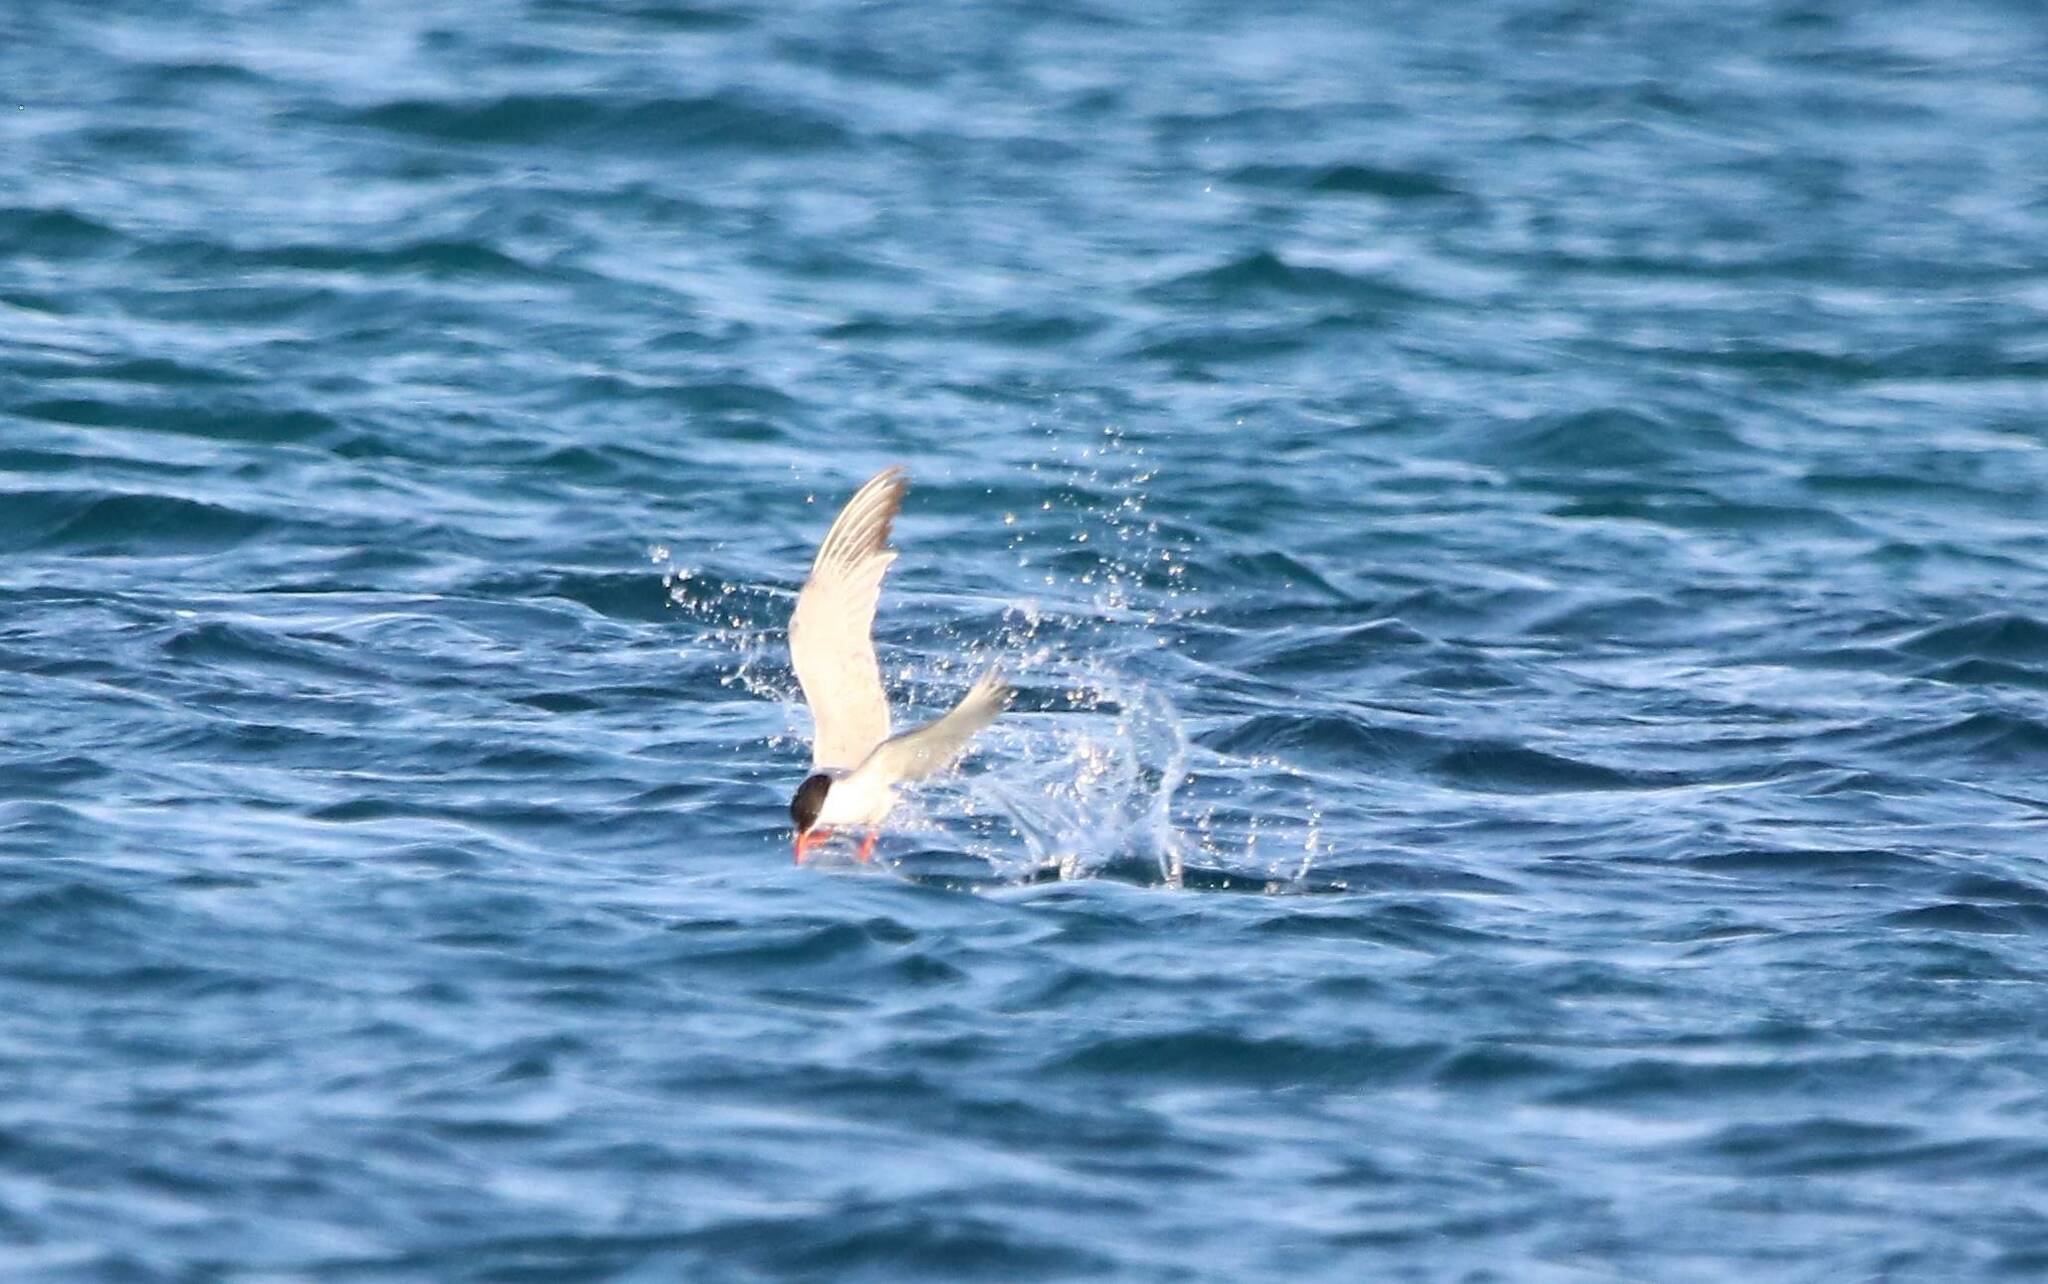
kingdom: Animalia
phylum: Chordata
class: Aves
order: Charadriiformes
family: Laridae
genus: Sterna
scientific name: Sterna hirundo
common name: Common tern
